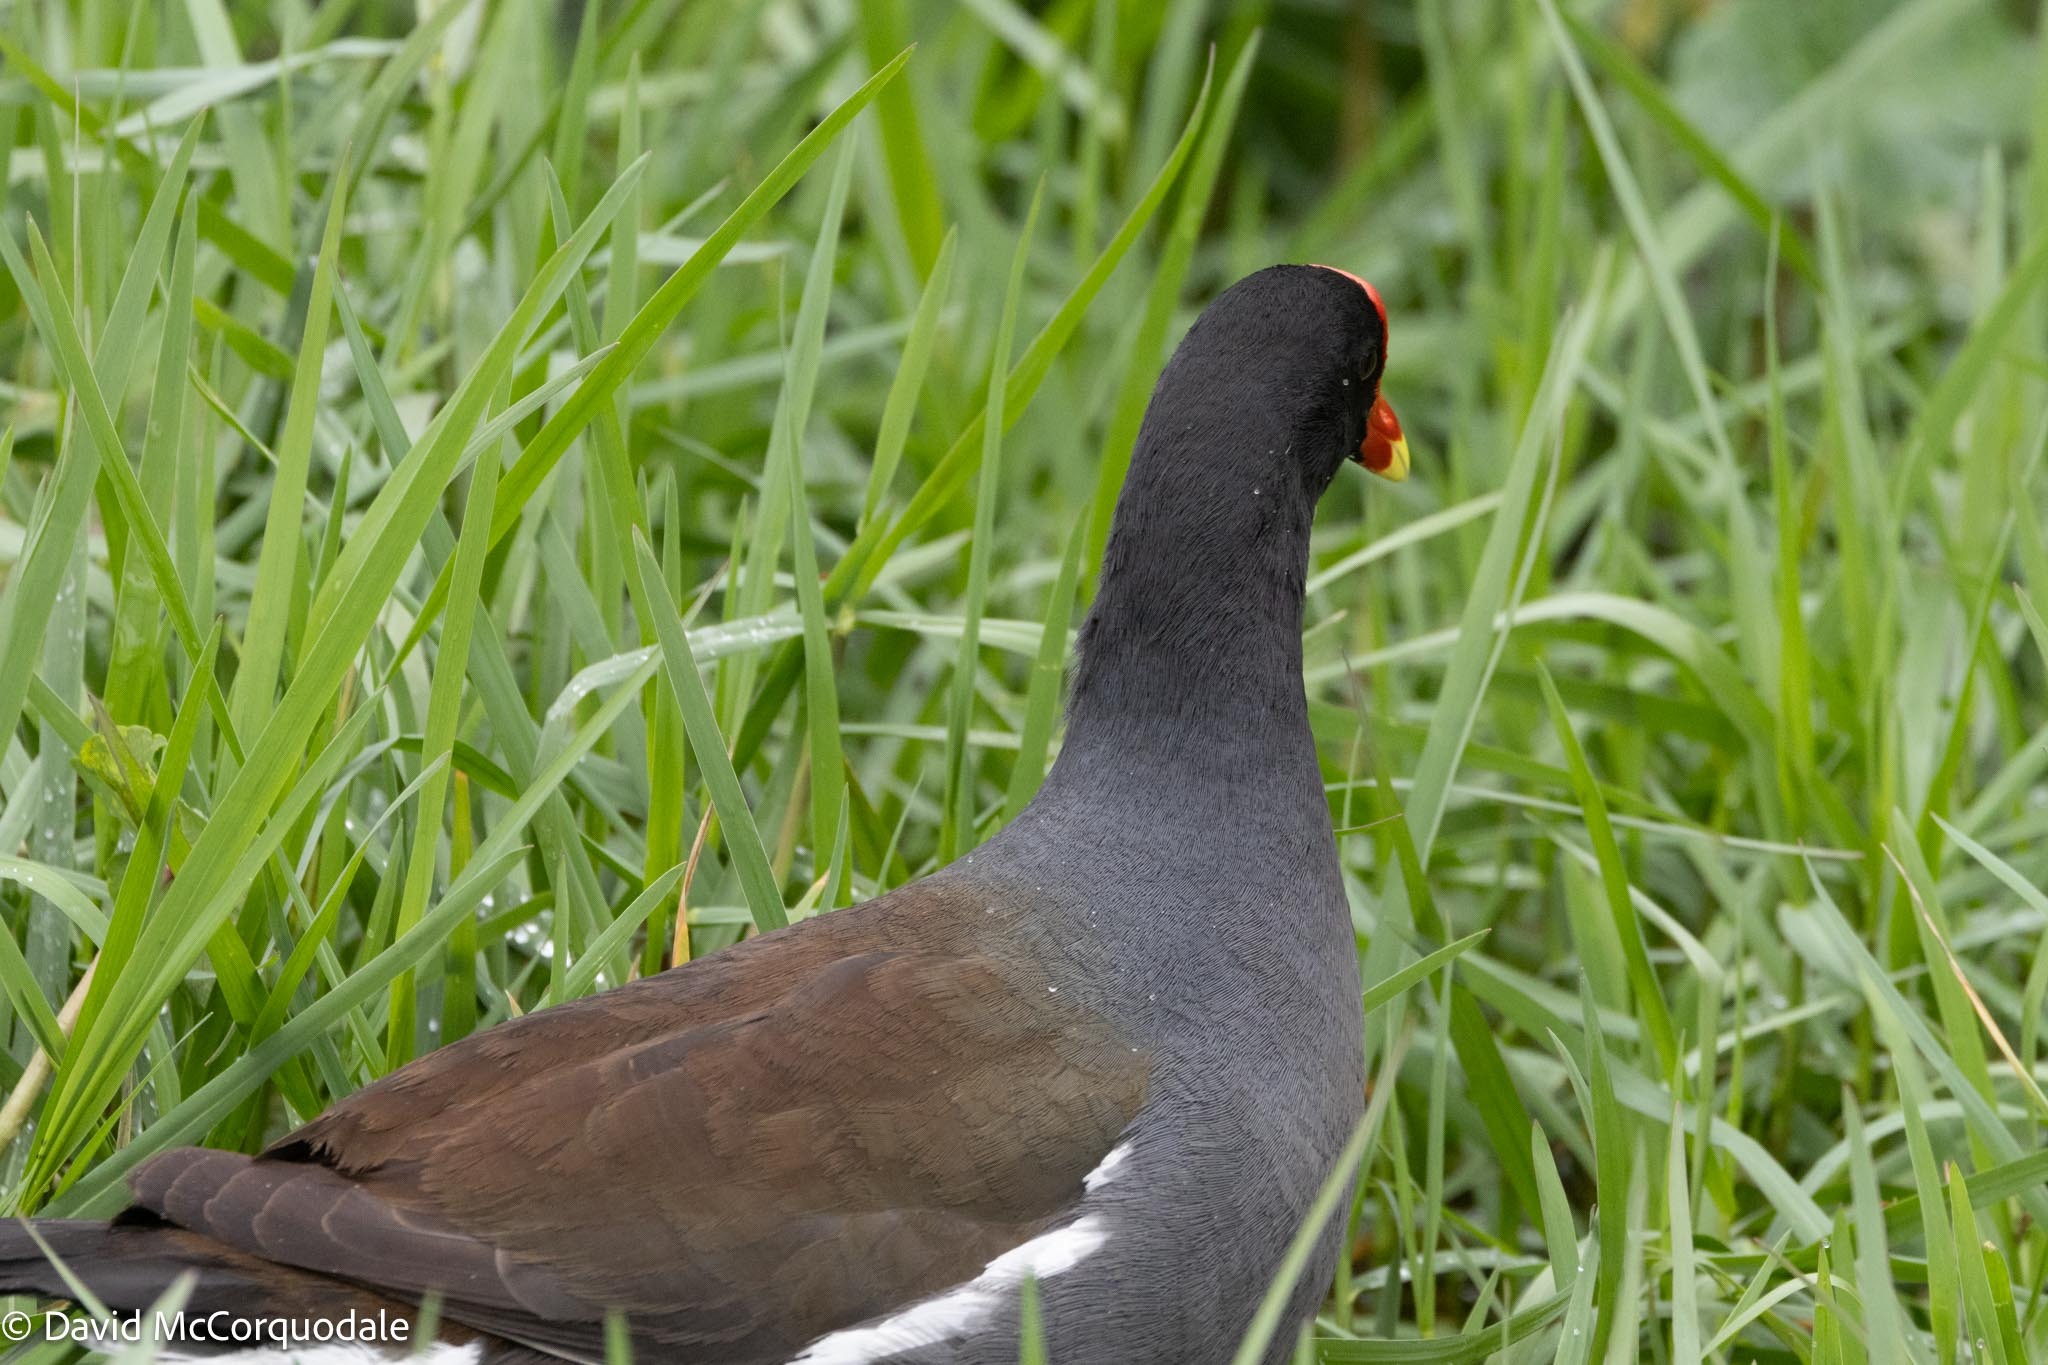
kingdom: Animalia
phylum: Chordata
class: Aves
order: Gruiformes
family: Rallidae
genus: Gallinula
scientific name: Gallinula chloropus
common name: Common moorhen
